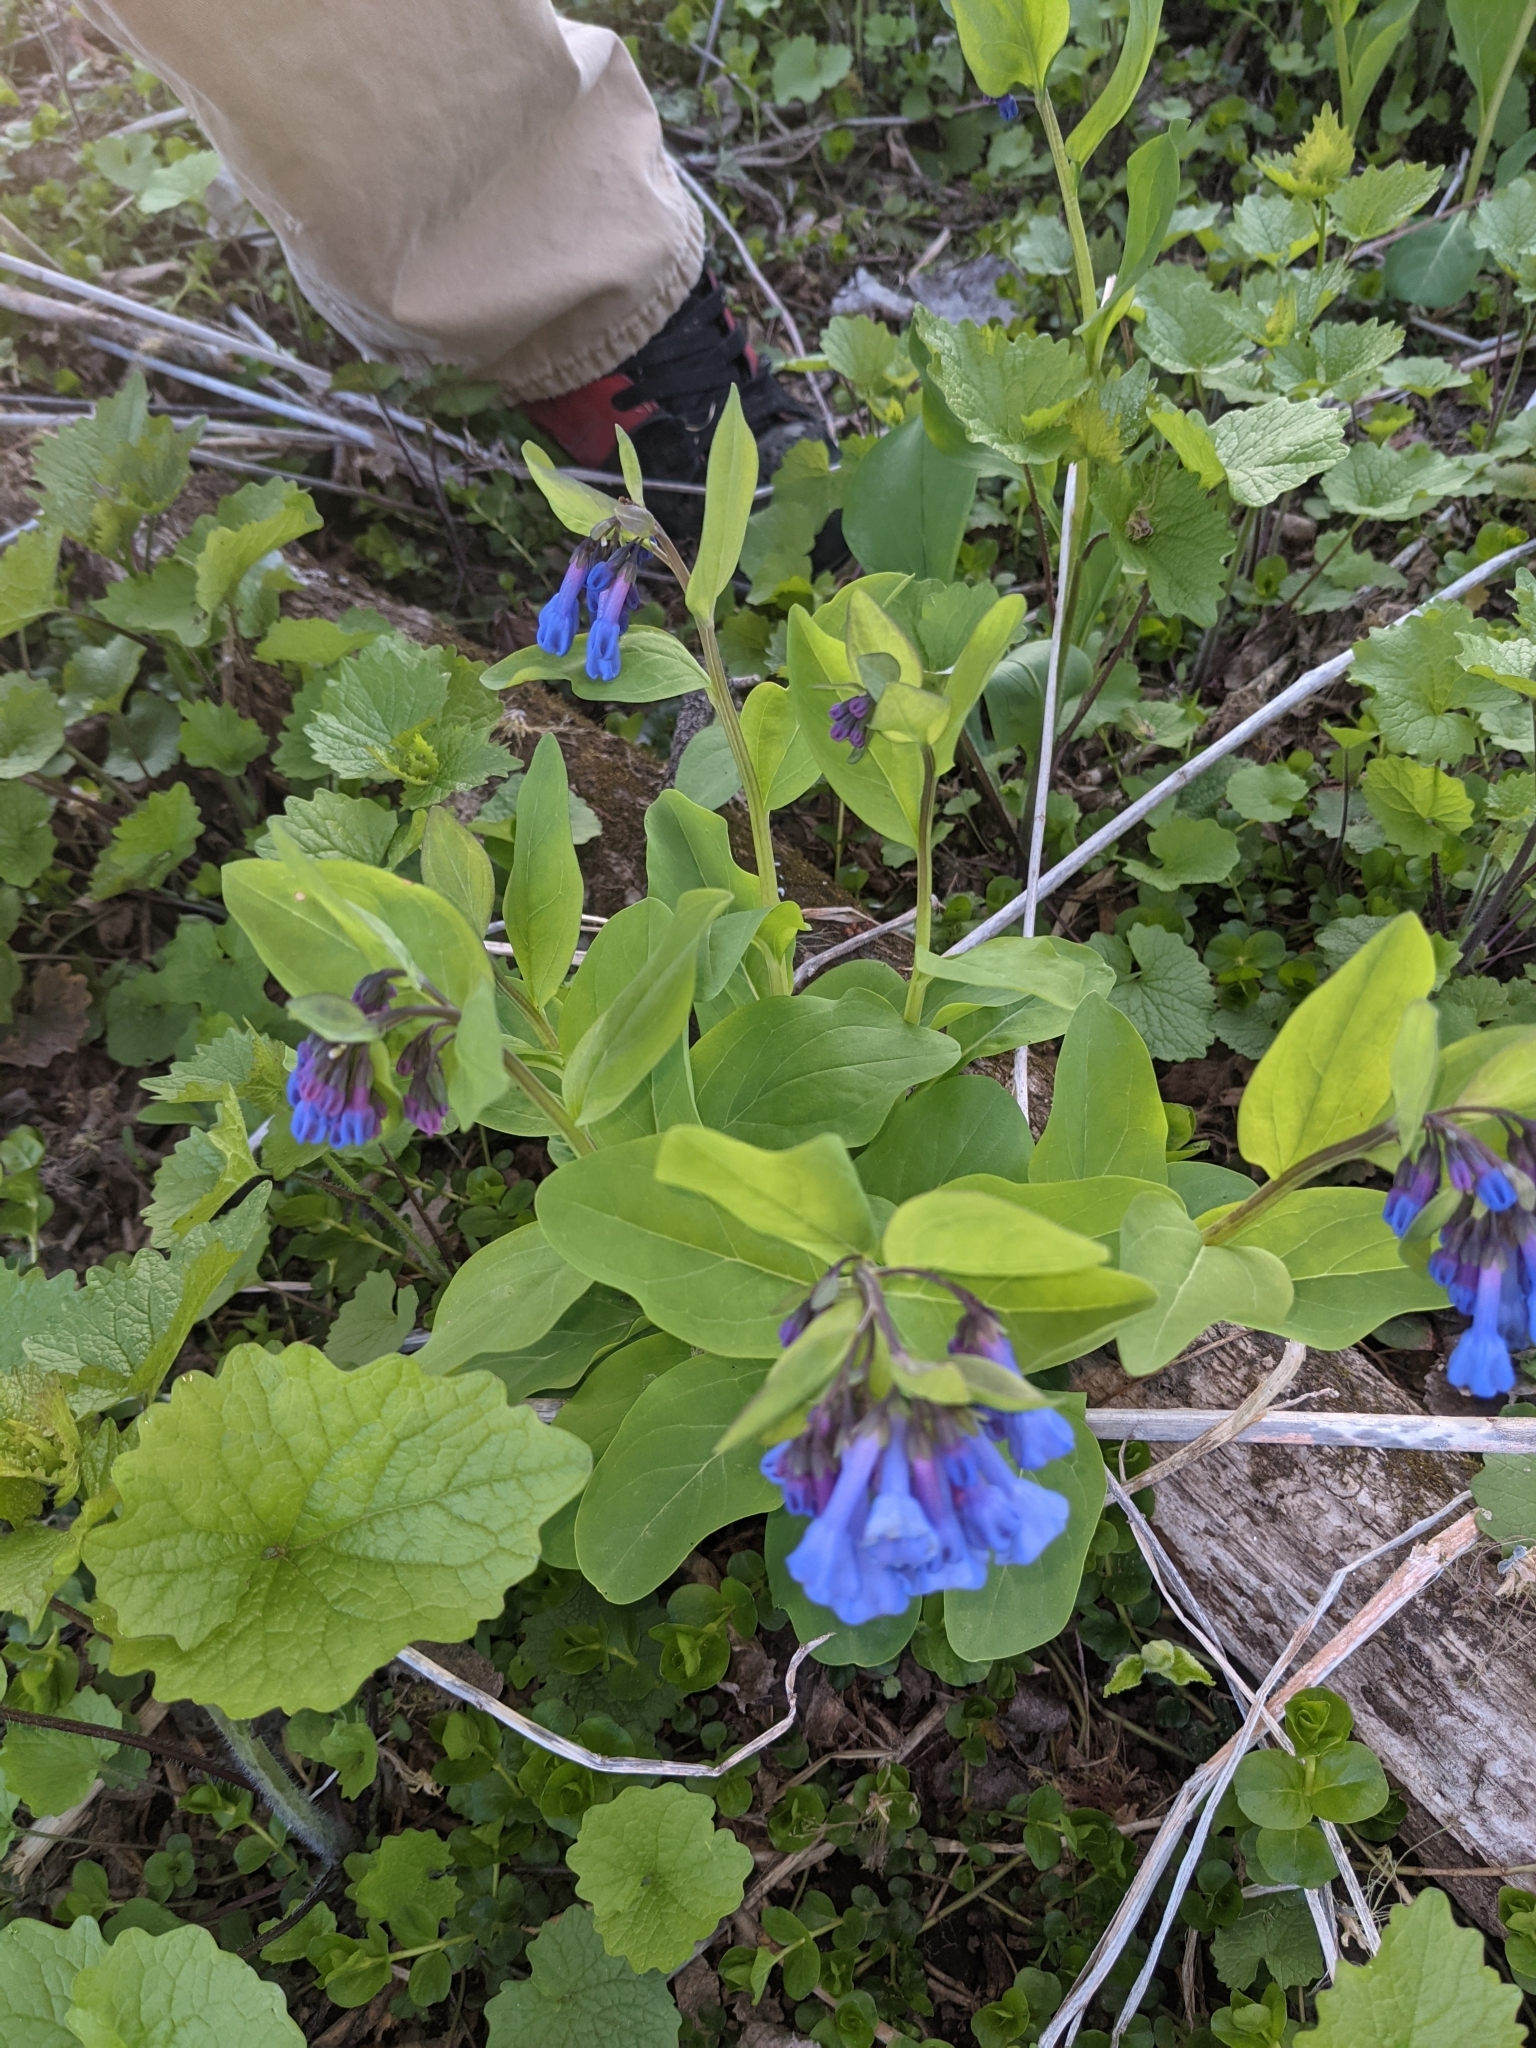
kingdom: Plantae
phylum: Tracheophyta
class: Magnoliopsida
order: Boraginales
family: Boraginaceae
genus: Mertensia
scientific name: Mertensia virginica
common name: Virginia bluebells
